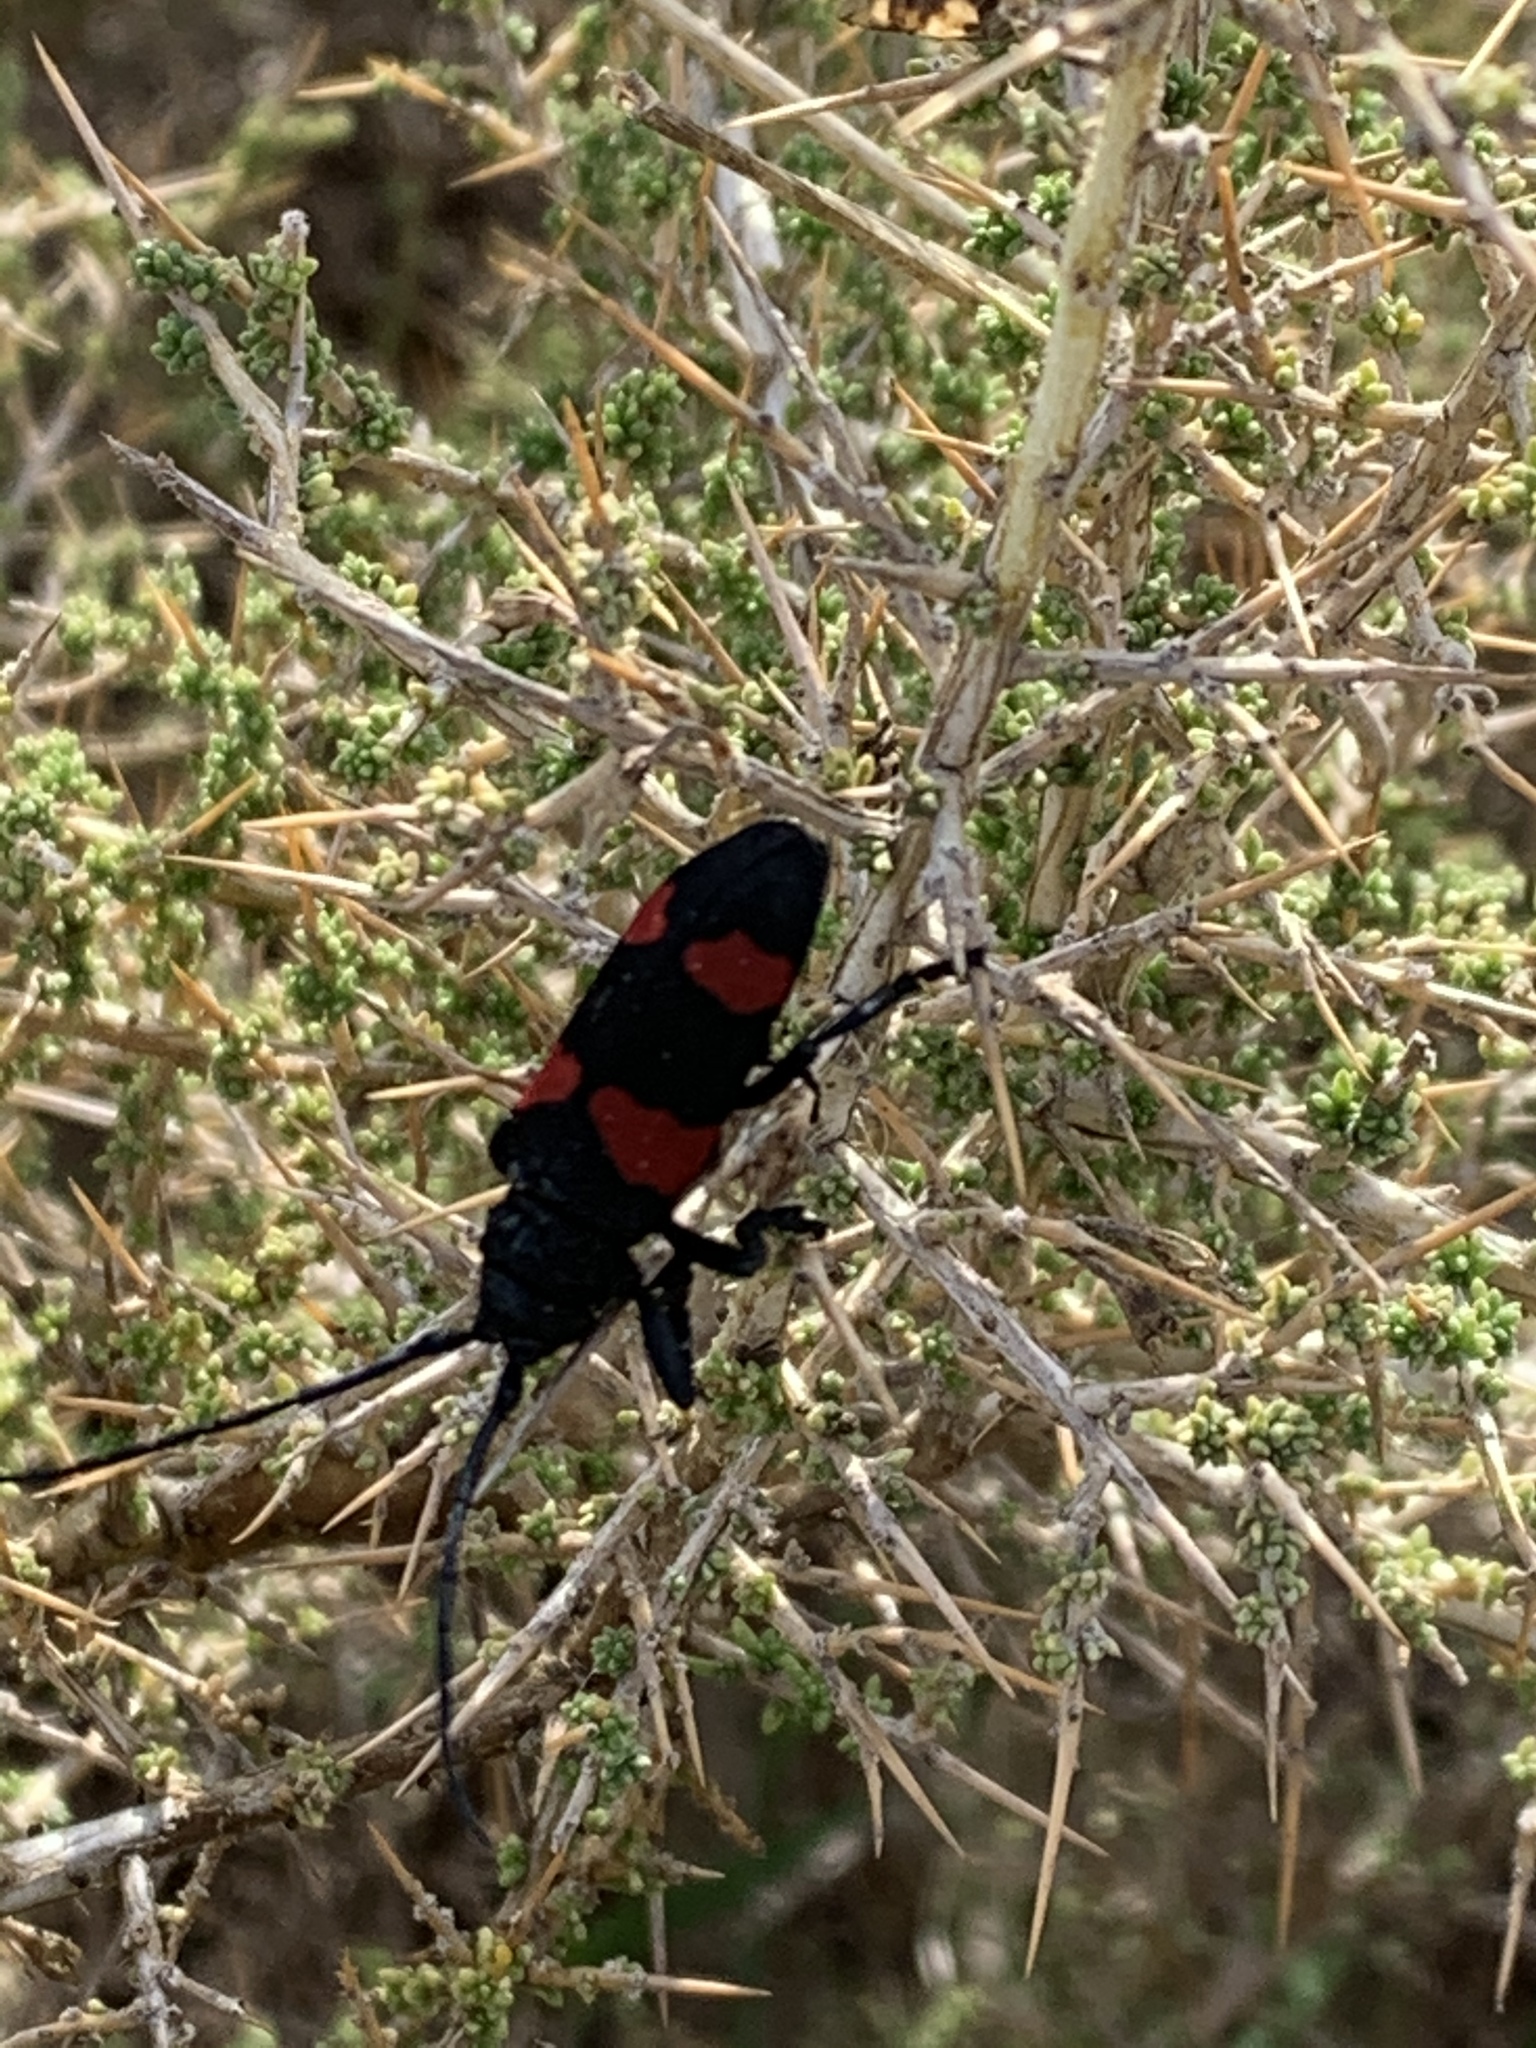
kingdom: Animalia
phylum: Arthropoda
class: Insecta
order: Coleoptera
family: Cerambycidae
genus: Ceroplesis
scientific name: Ceroplesis aethiops
